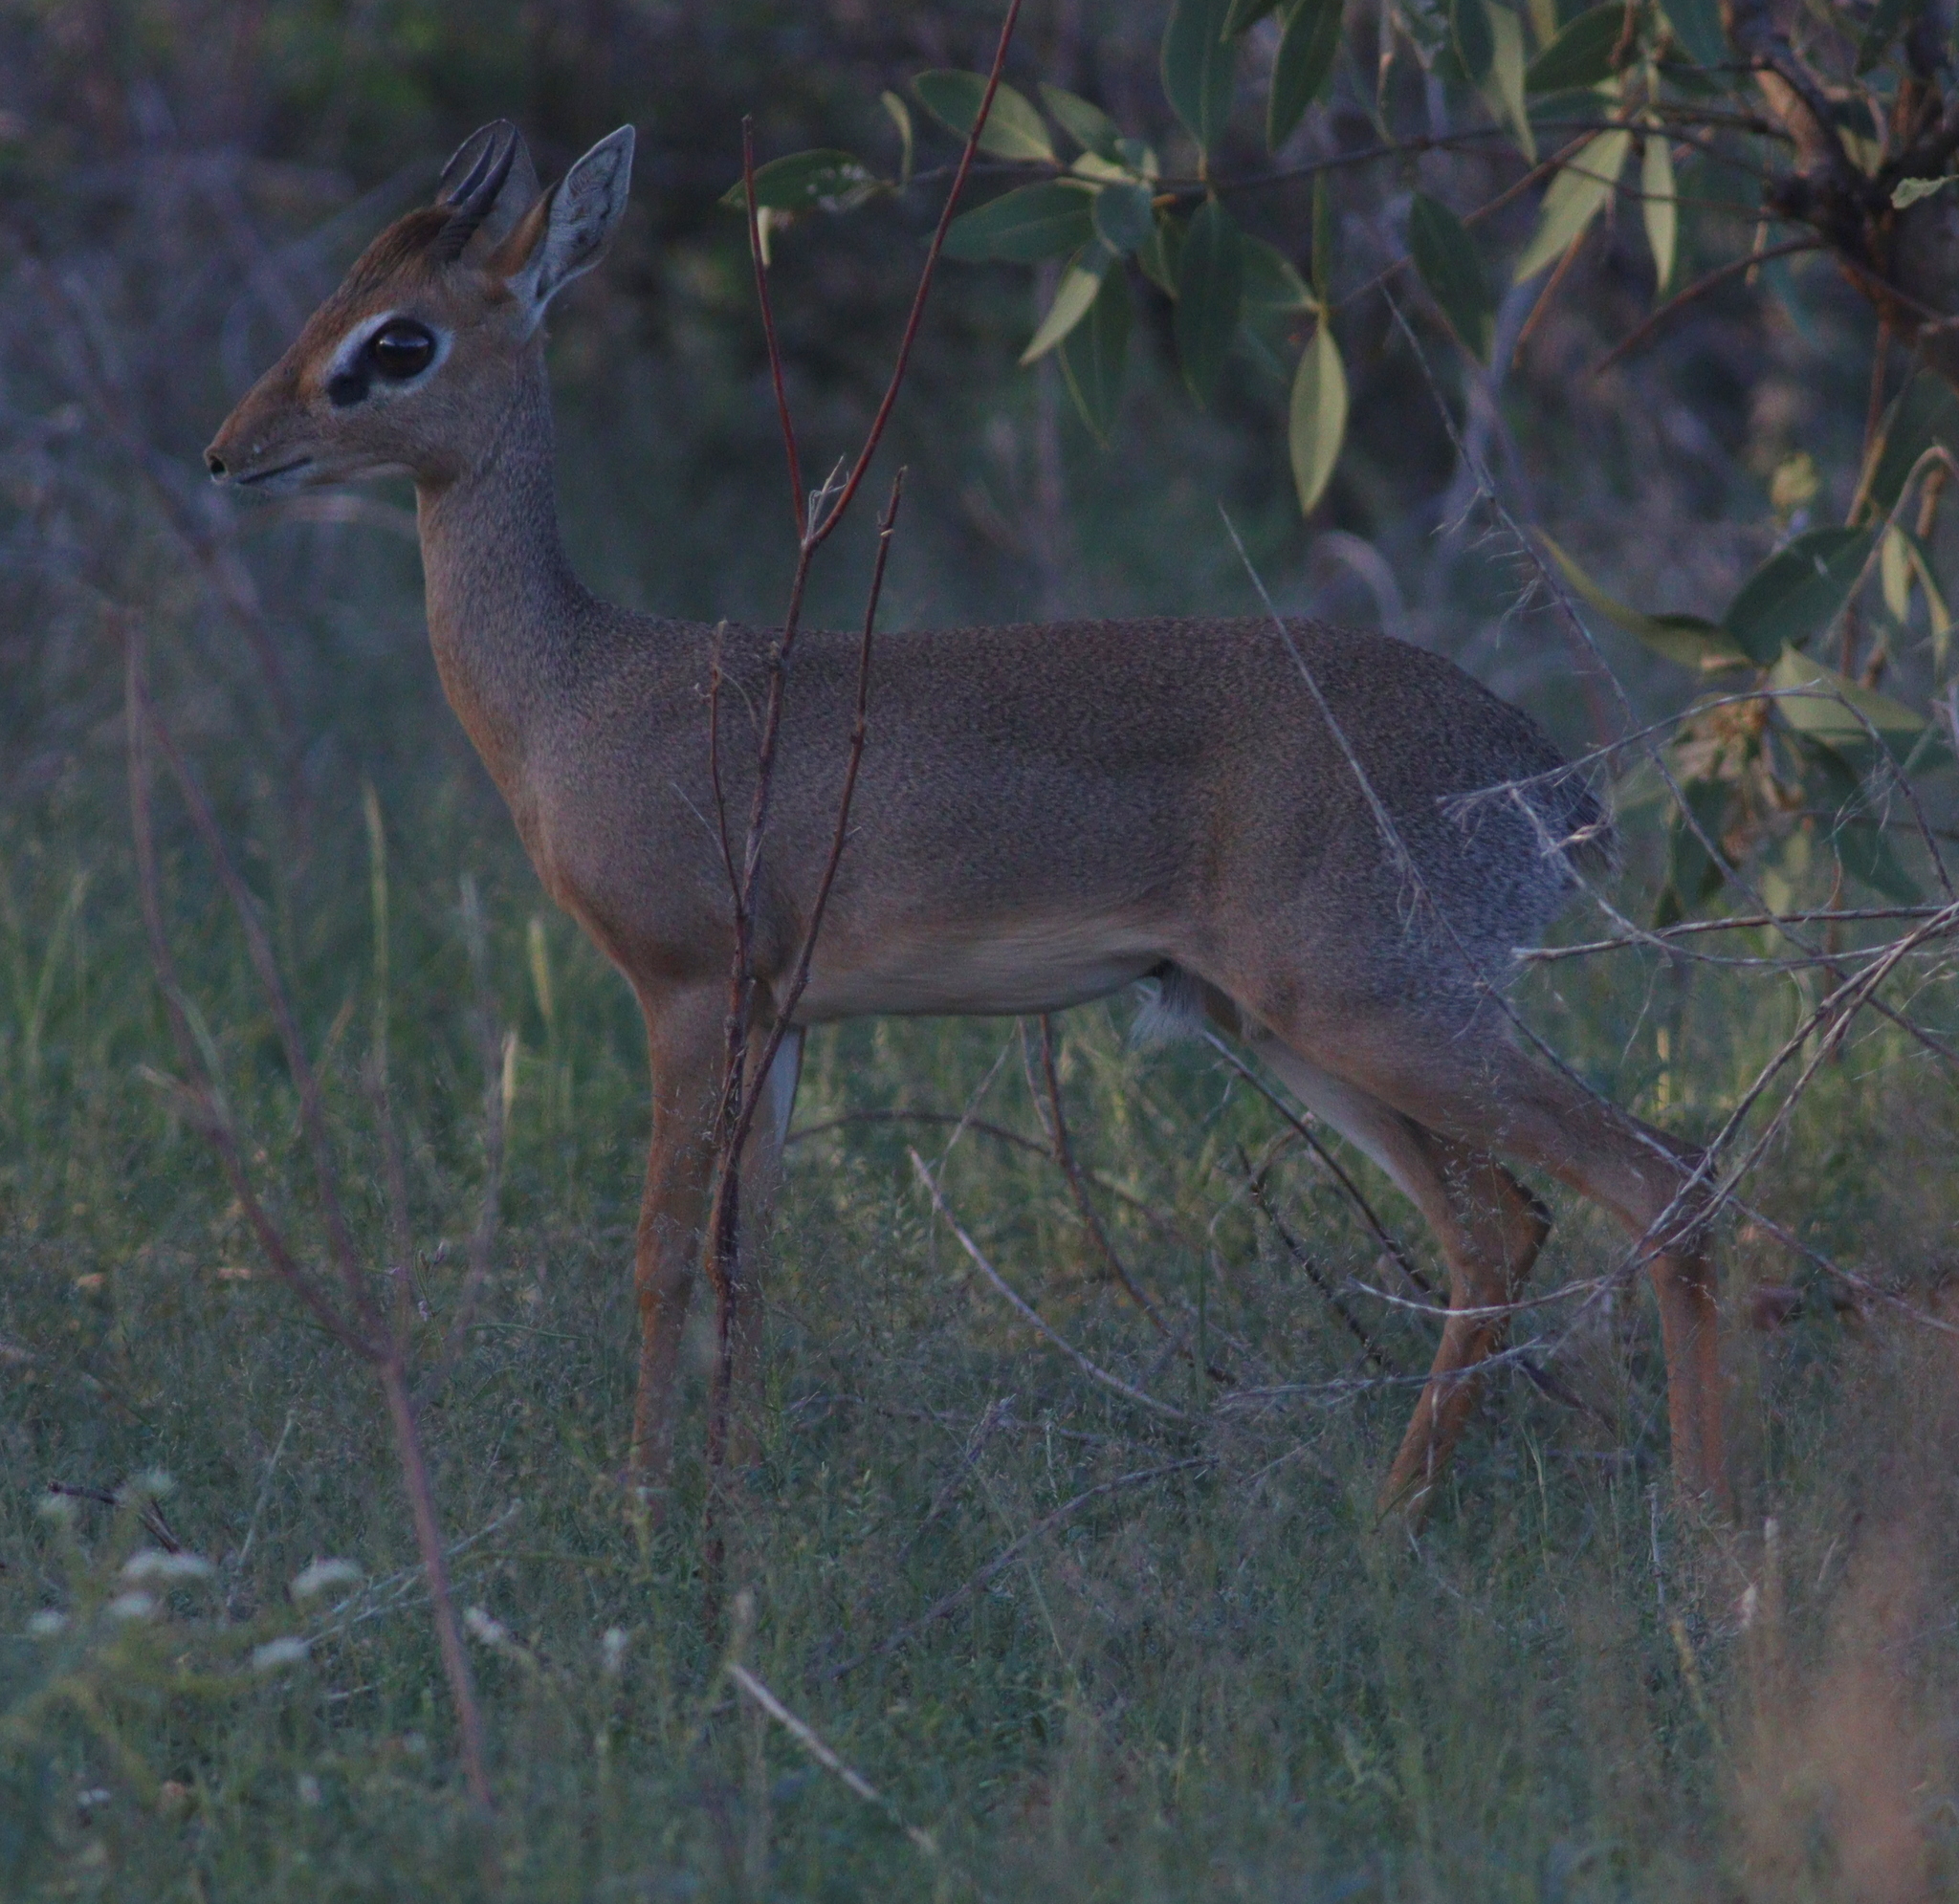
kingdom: Animalia
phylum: Chordata
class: Mammalia
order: Artiodactyla
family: Bovidae
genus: Madoqua
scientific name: Madoqua kirkii
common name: Kirk's dik-dik
